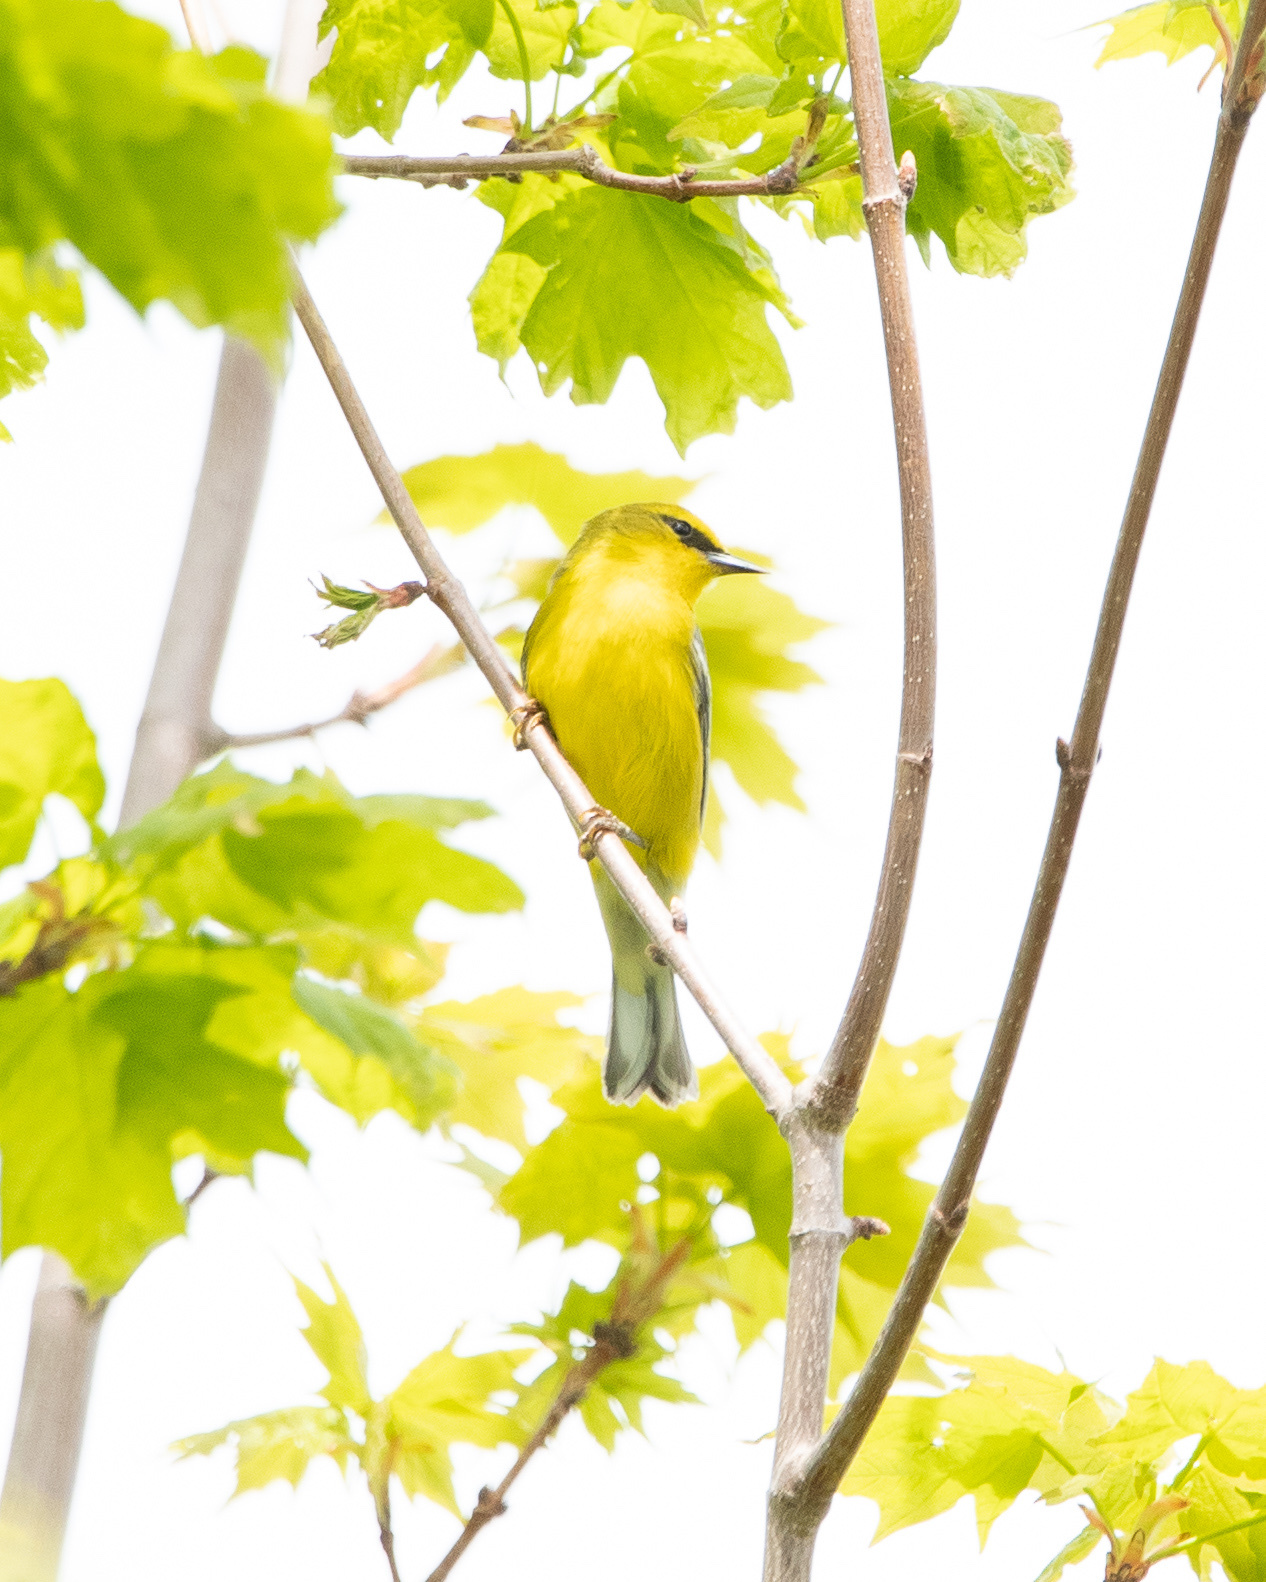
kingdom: Animalia
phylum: Chordata
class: Aves
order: Passeriformes
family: Parulidae
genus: Vermivora
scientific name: Vermivora cyanoptera
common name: Blue-winged warbler
